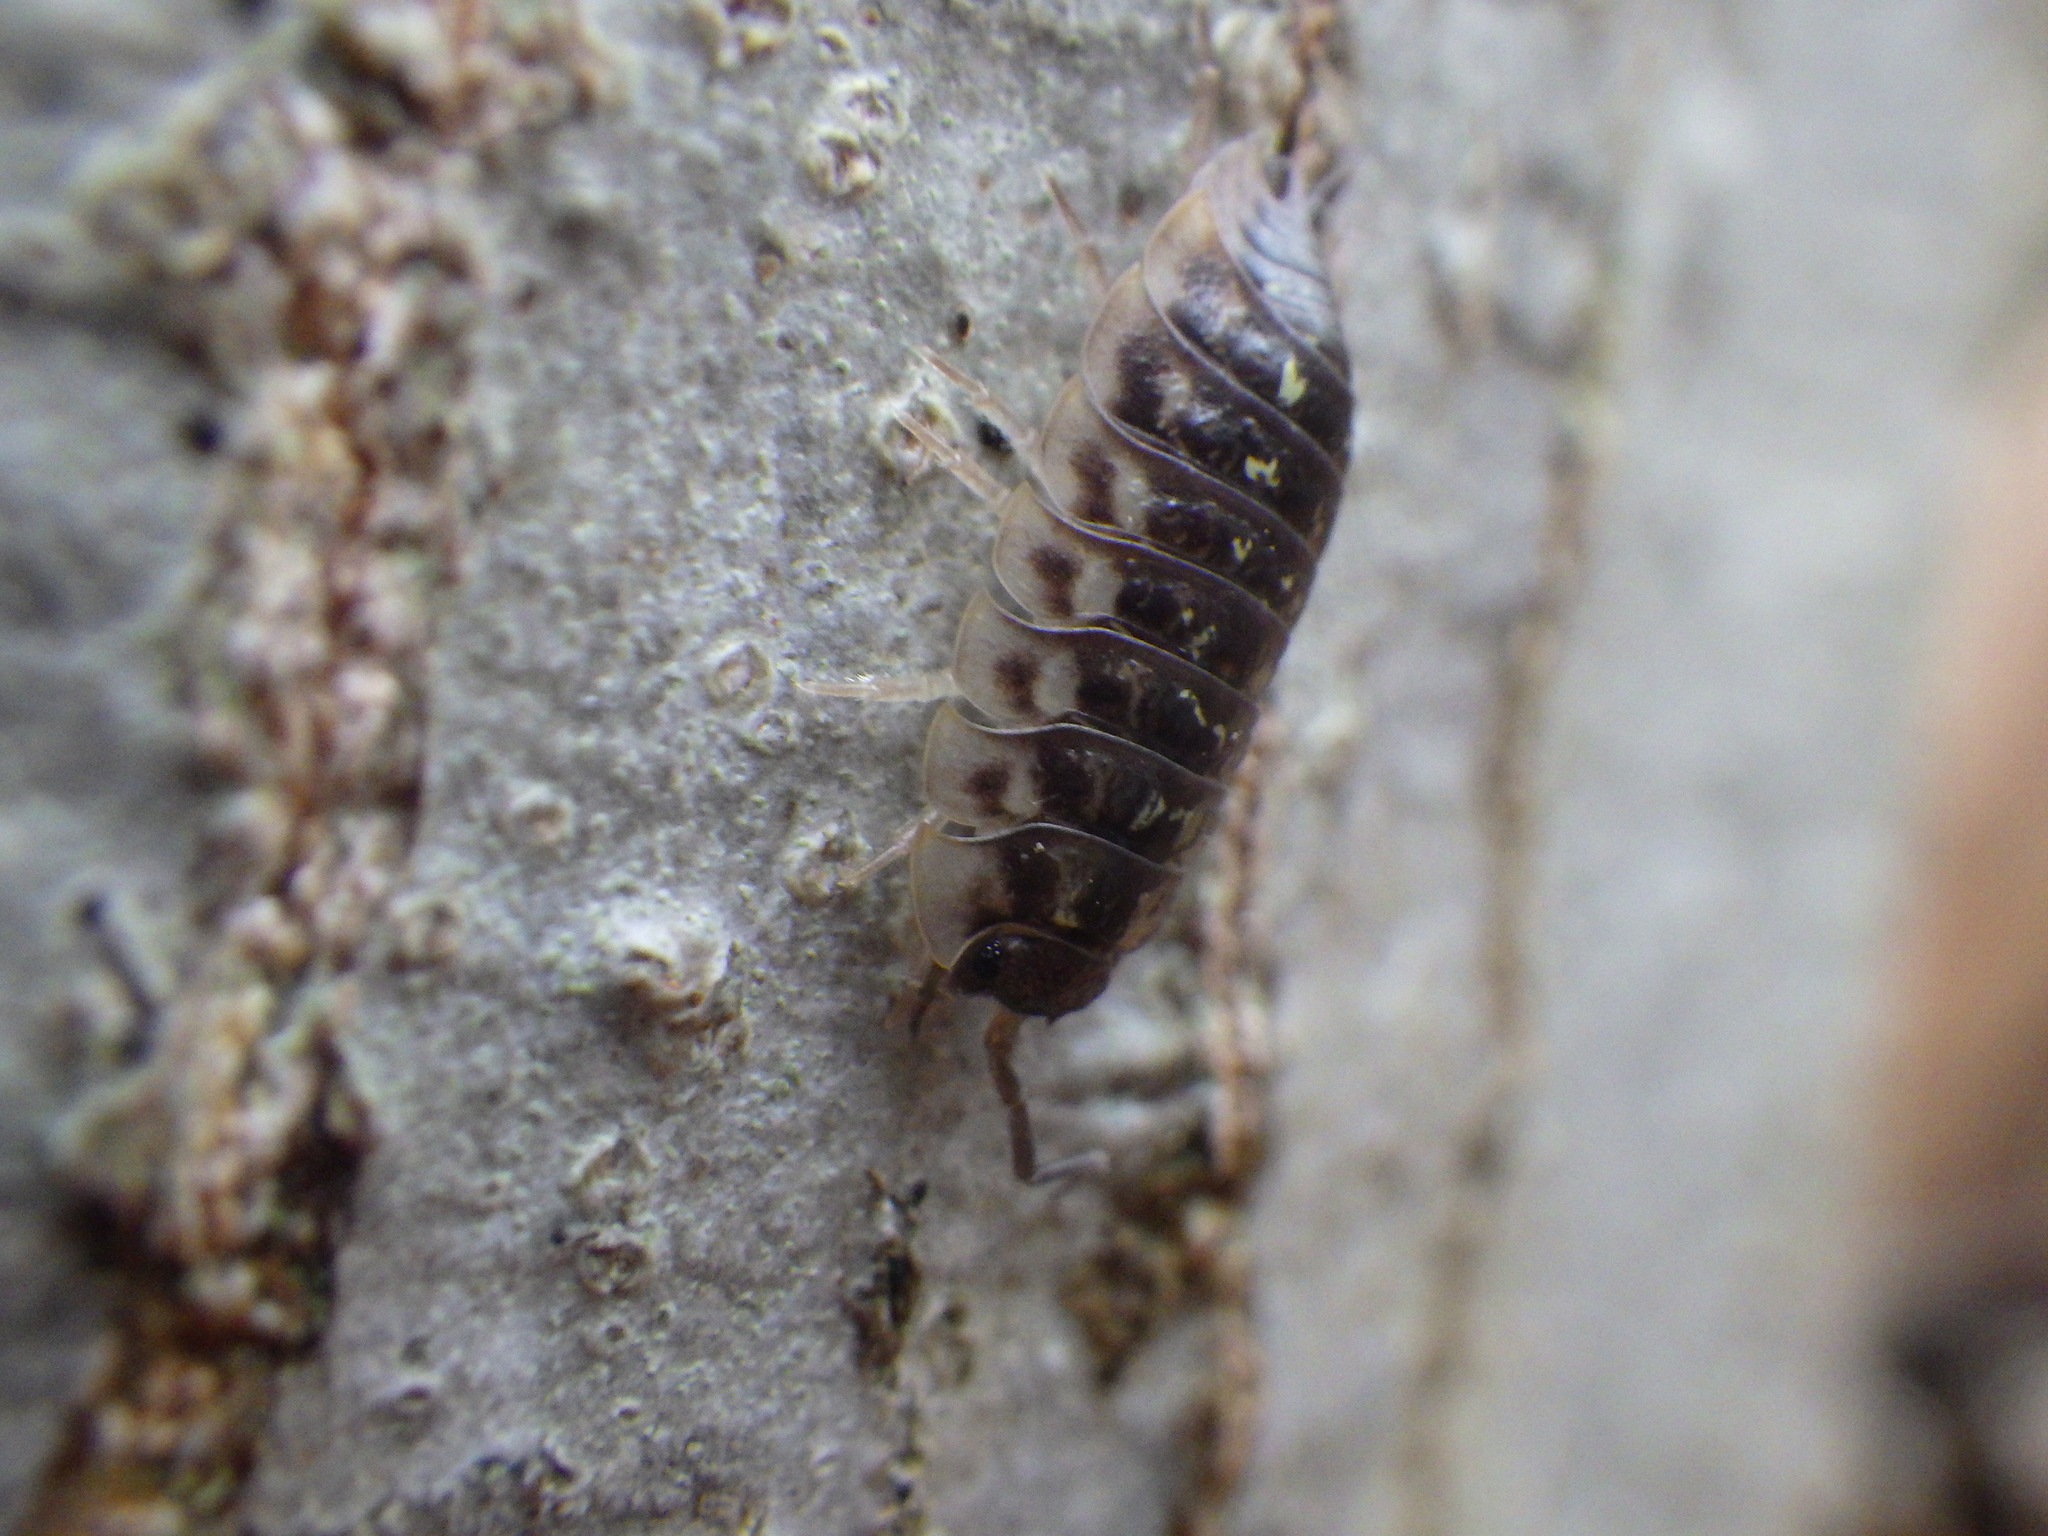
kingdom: Animalia
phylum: Arthropoda
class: Malacostraca
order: Isopoda
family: Oniscidae
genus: Oniscus
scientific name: Oniscus asellus
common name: Common shiny woodlouse
